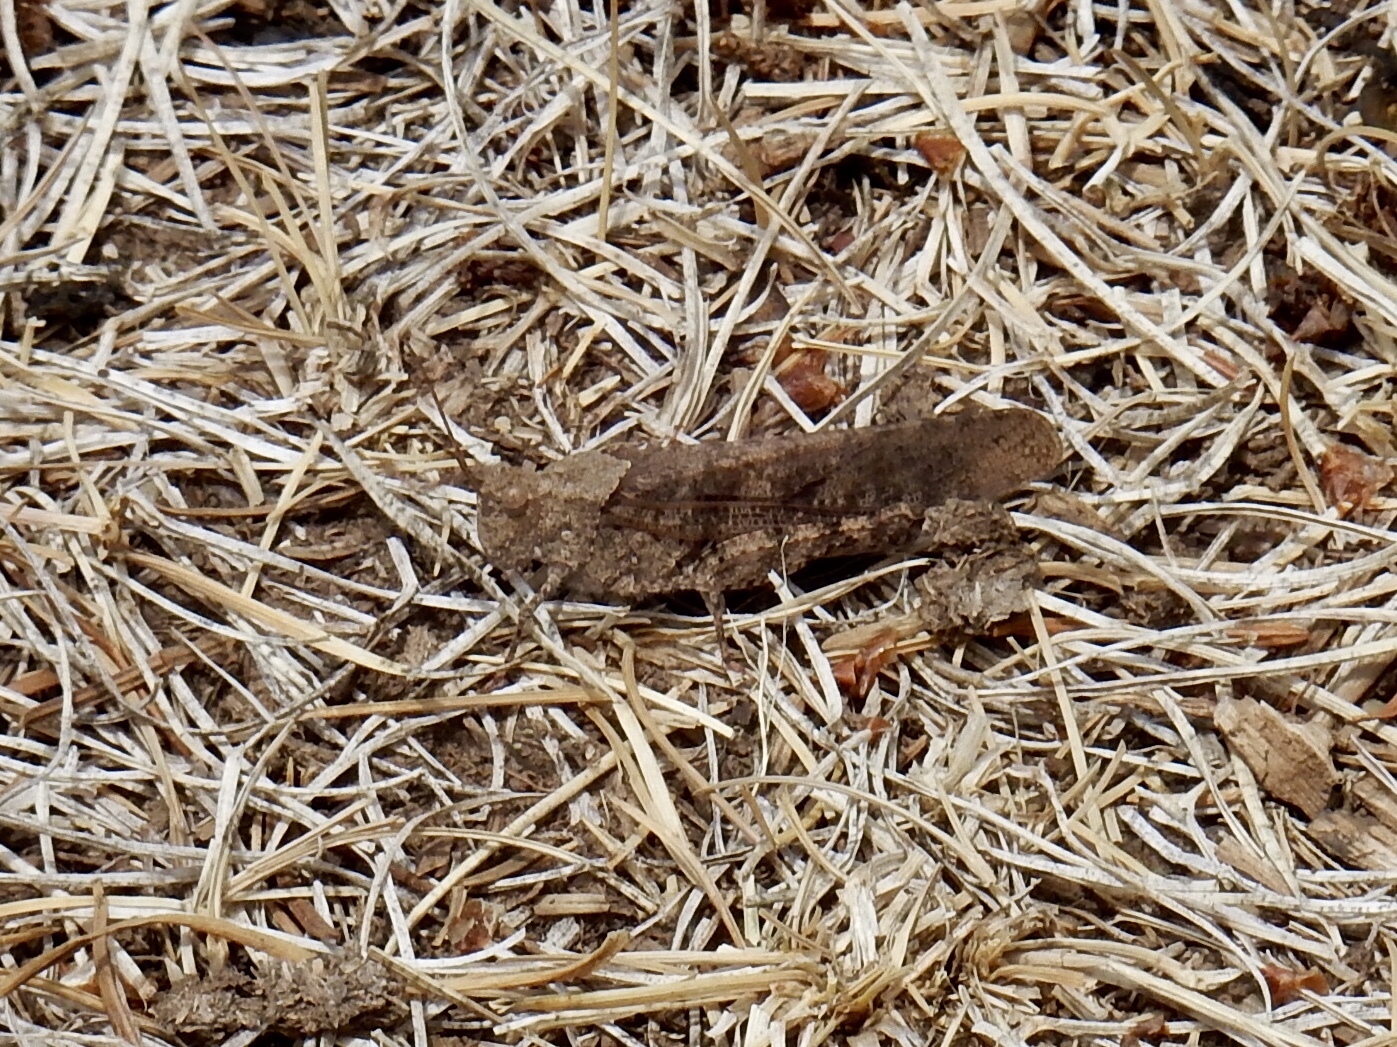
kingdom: Animalia
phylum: Arthropoda
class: Insecta
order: Orthoptera
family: Acrididae
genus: Trimerotropis
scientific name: Trimerotropis verruculata
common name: Crackling forest grasshopper
